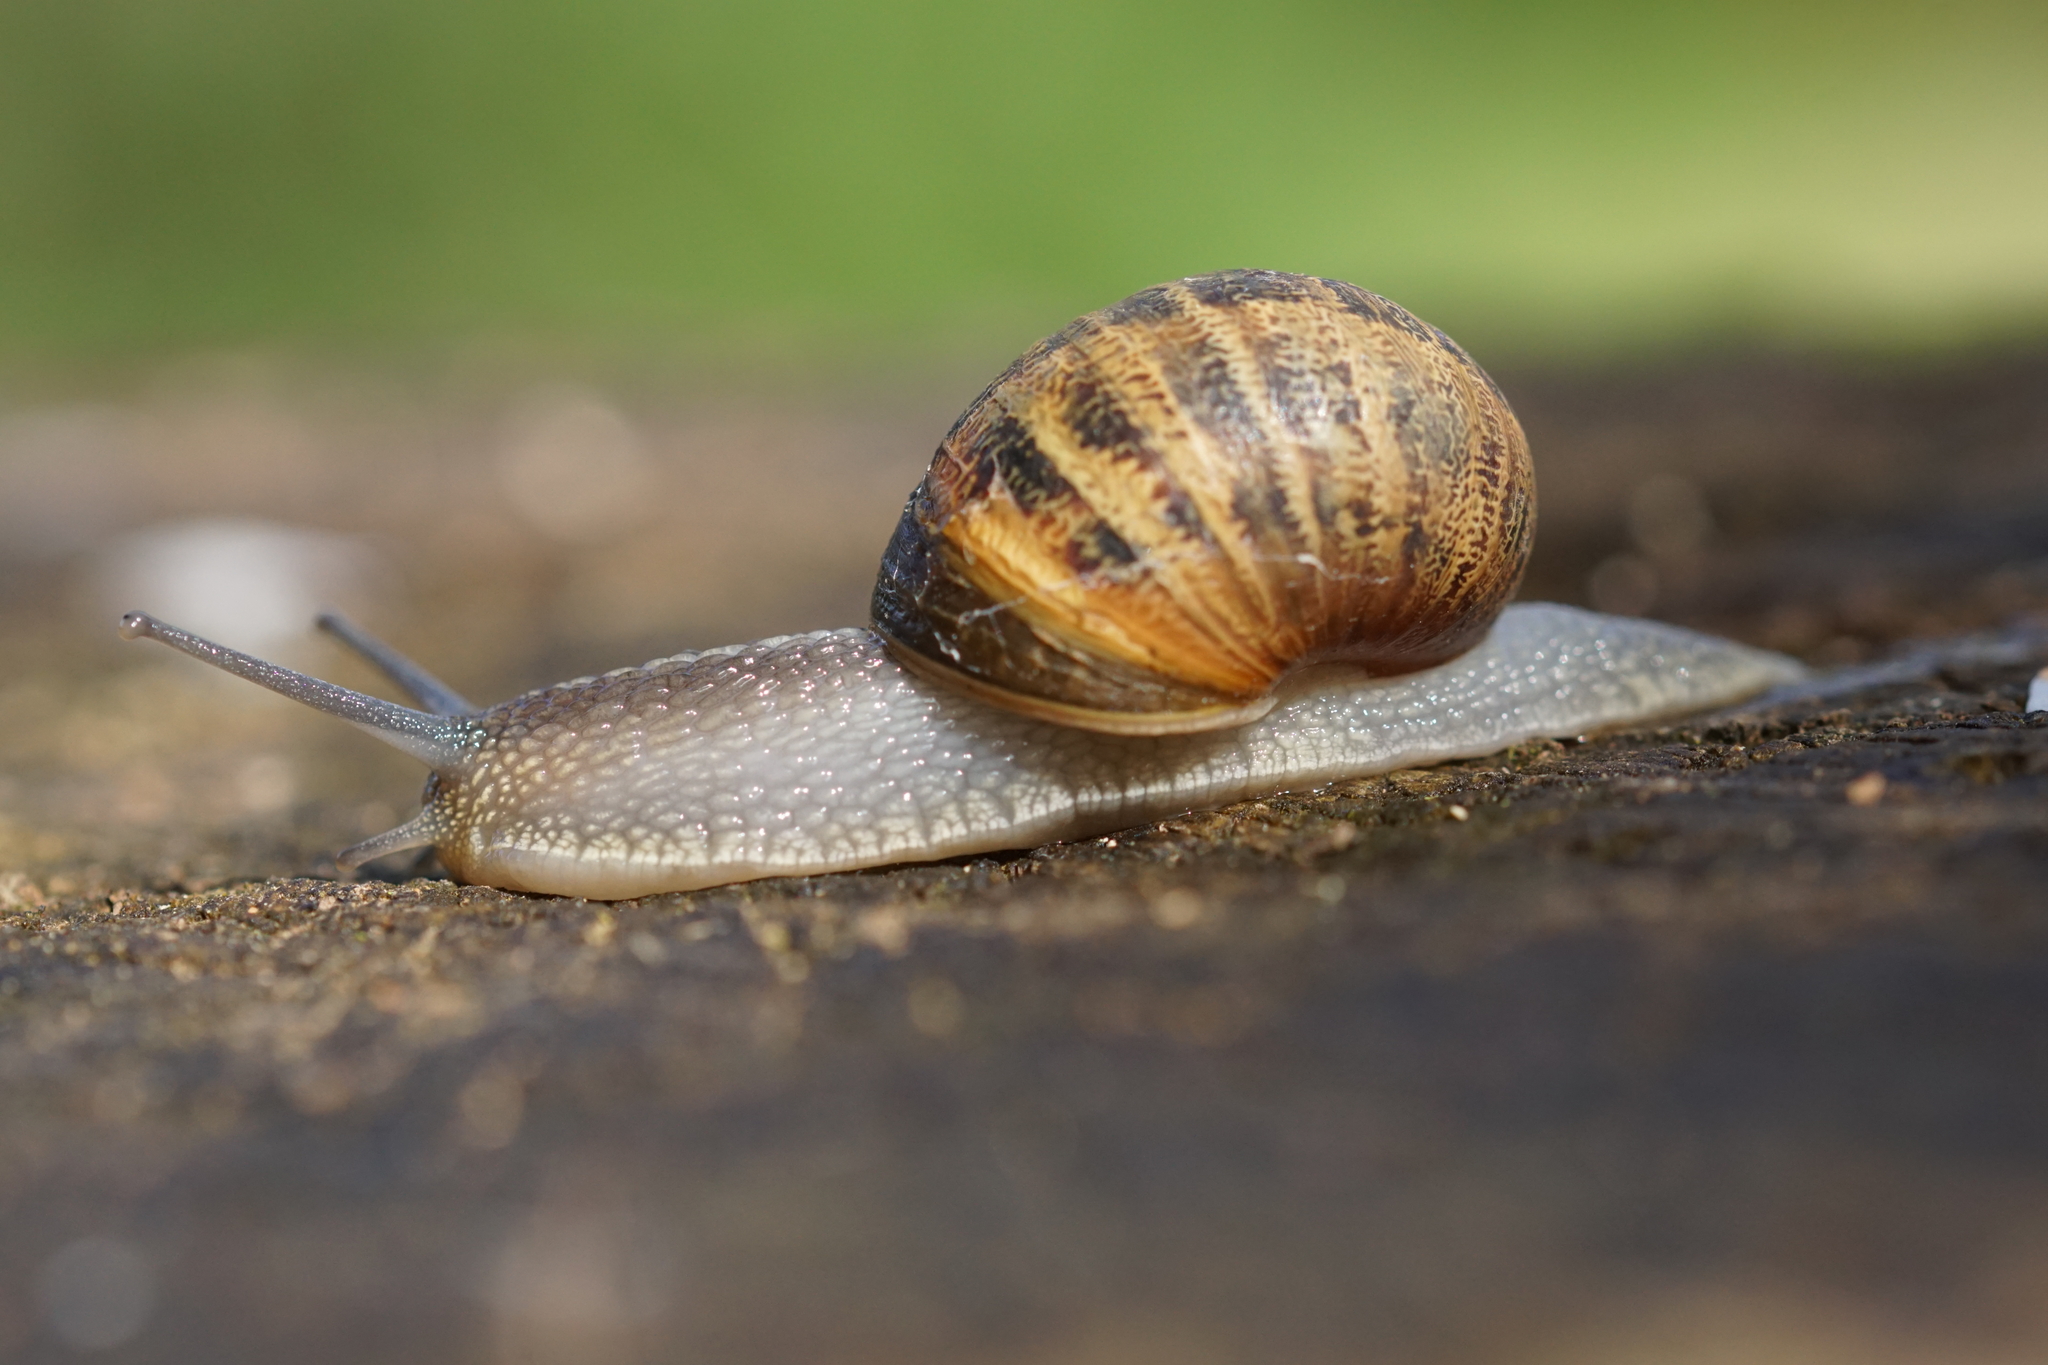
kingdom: Animalia
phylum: Mollusca
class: Gastropoda
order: Stylommatophora
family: Helicidae
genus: Cornu
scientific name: Cornu aspersum
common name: Brown garden snail
